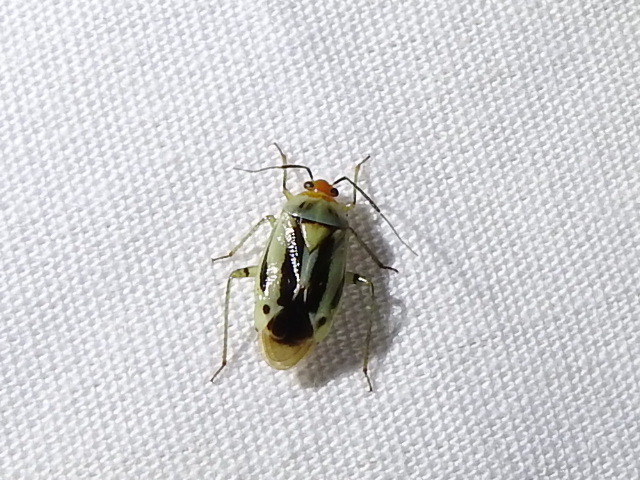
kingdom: Animalia
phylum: Arthropoda
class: Insecta
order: Hemiptera
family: Miridae
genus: Poecilocapsus
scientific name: Poecilocapsus nigriger
